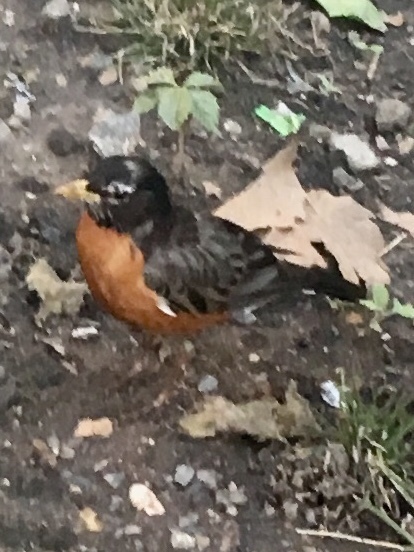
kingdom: Animalia
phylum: Chordata
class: Aves
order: Passeriformes
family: Turdidae
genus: Turdus
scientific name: Turdus migratorius
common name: American robin
